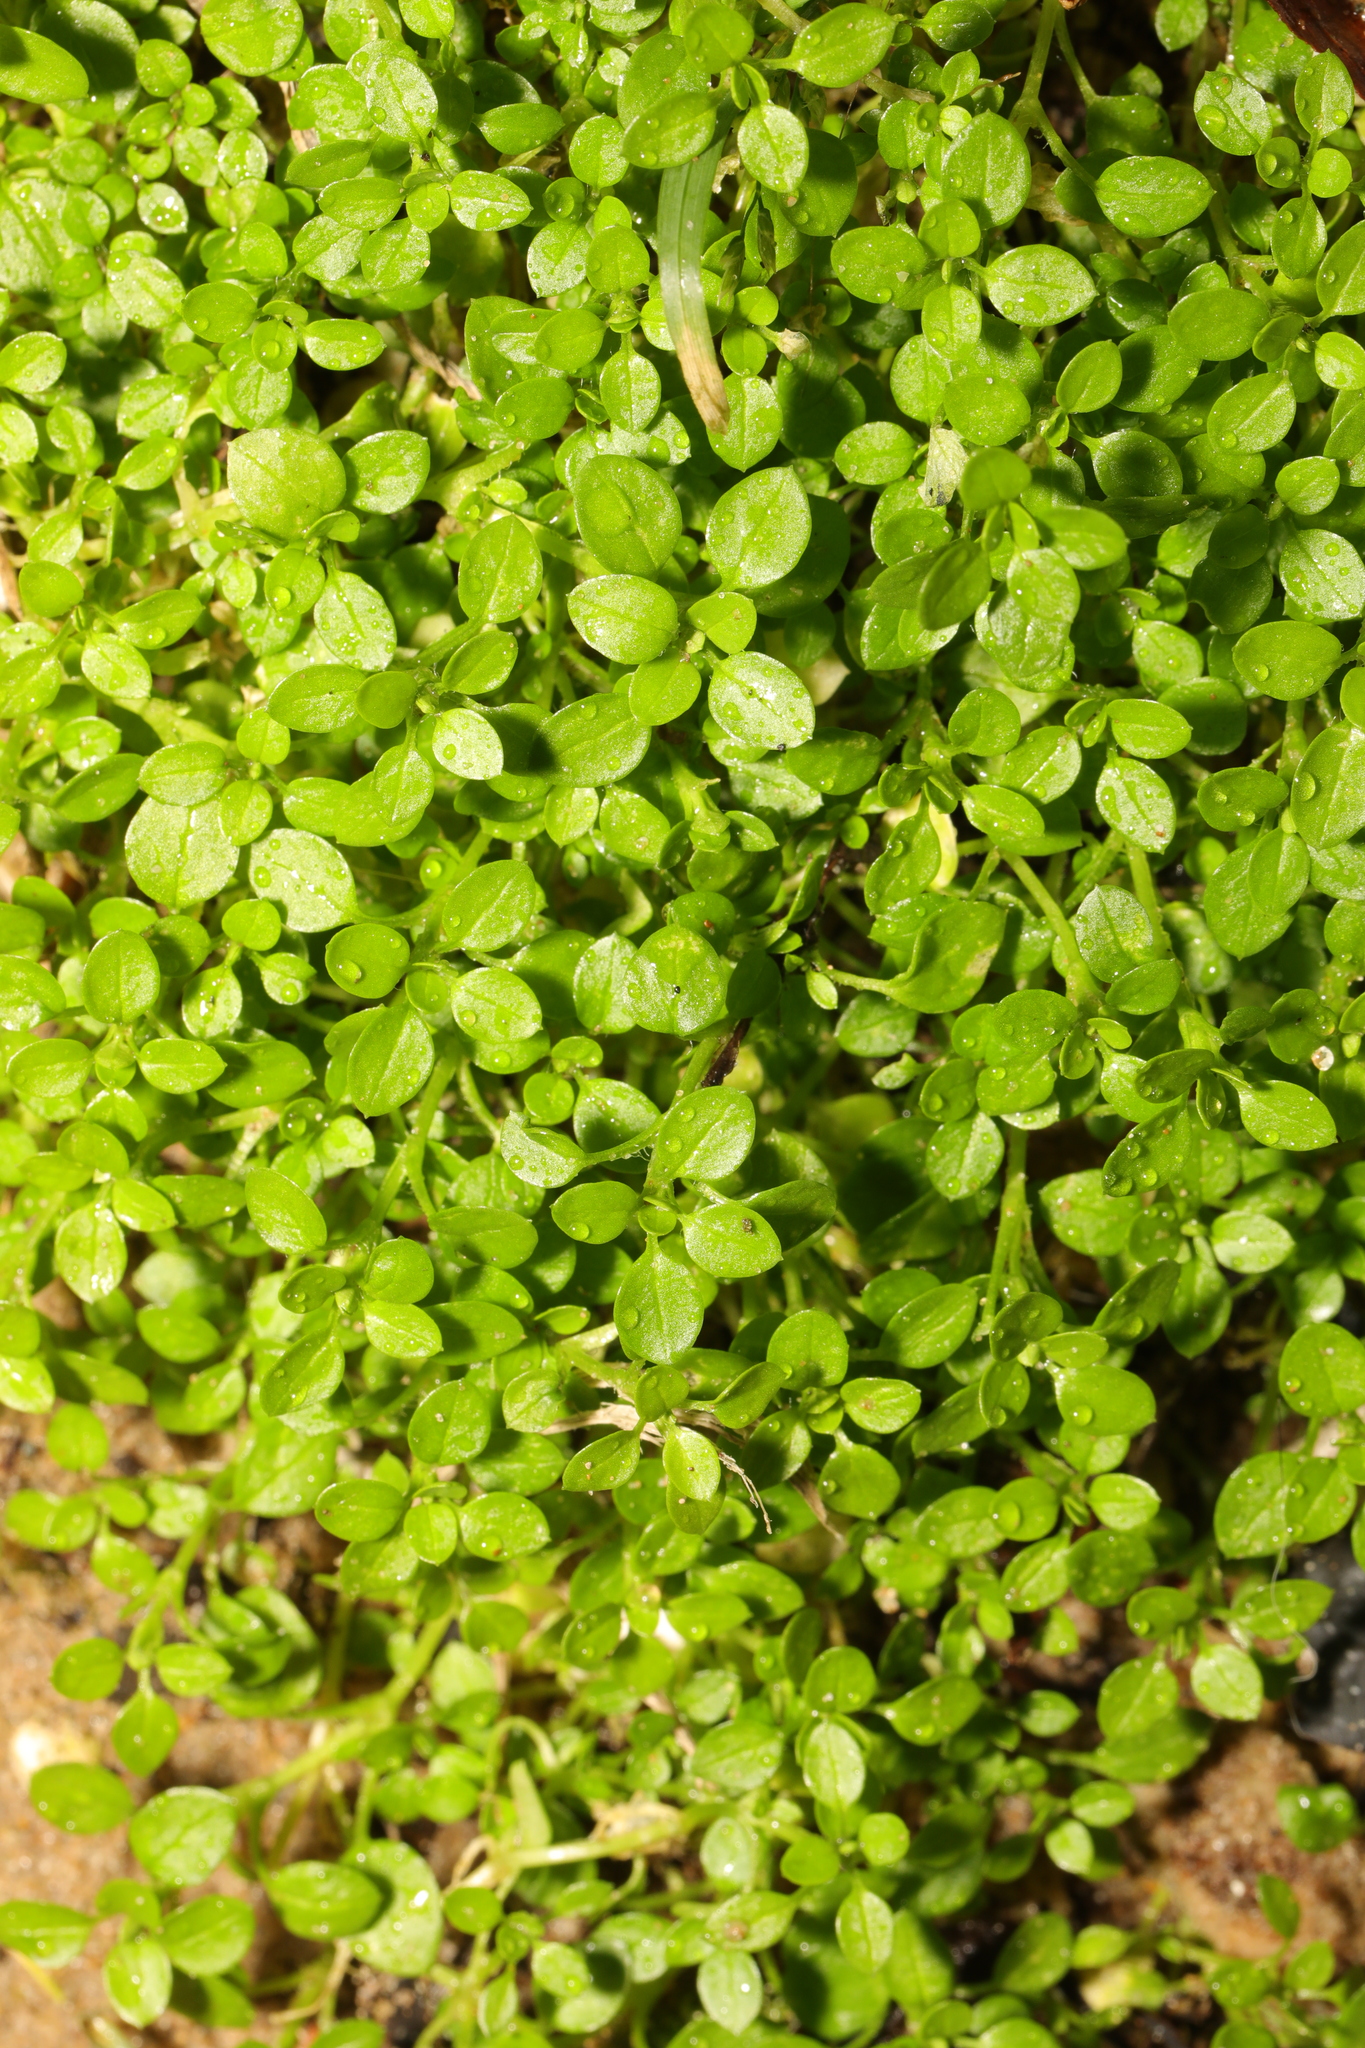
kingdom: Plantae
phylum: Tracheophyta
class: Magnoliopsida
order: Caryophyllales
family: Caryophyllaceae
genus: Stellaria
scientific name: Stellaria media
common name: Common chickweed
